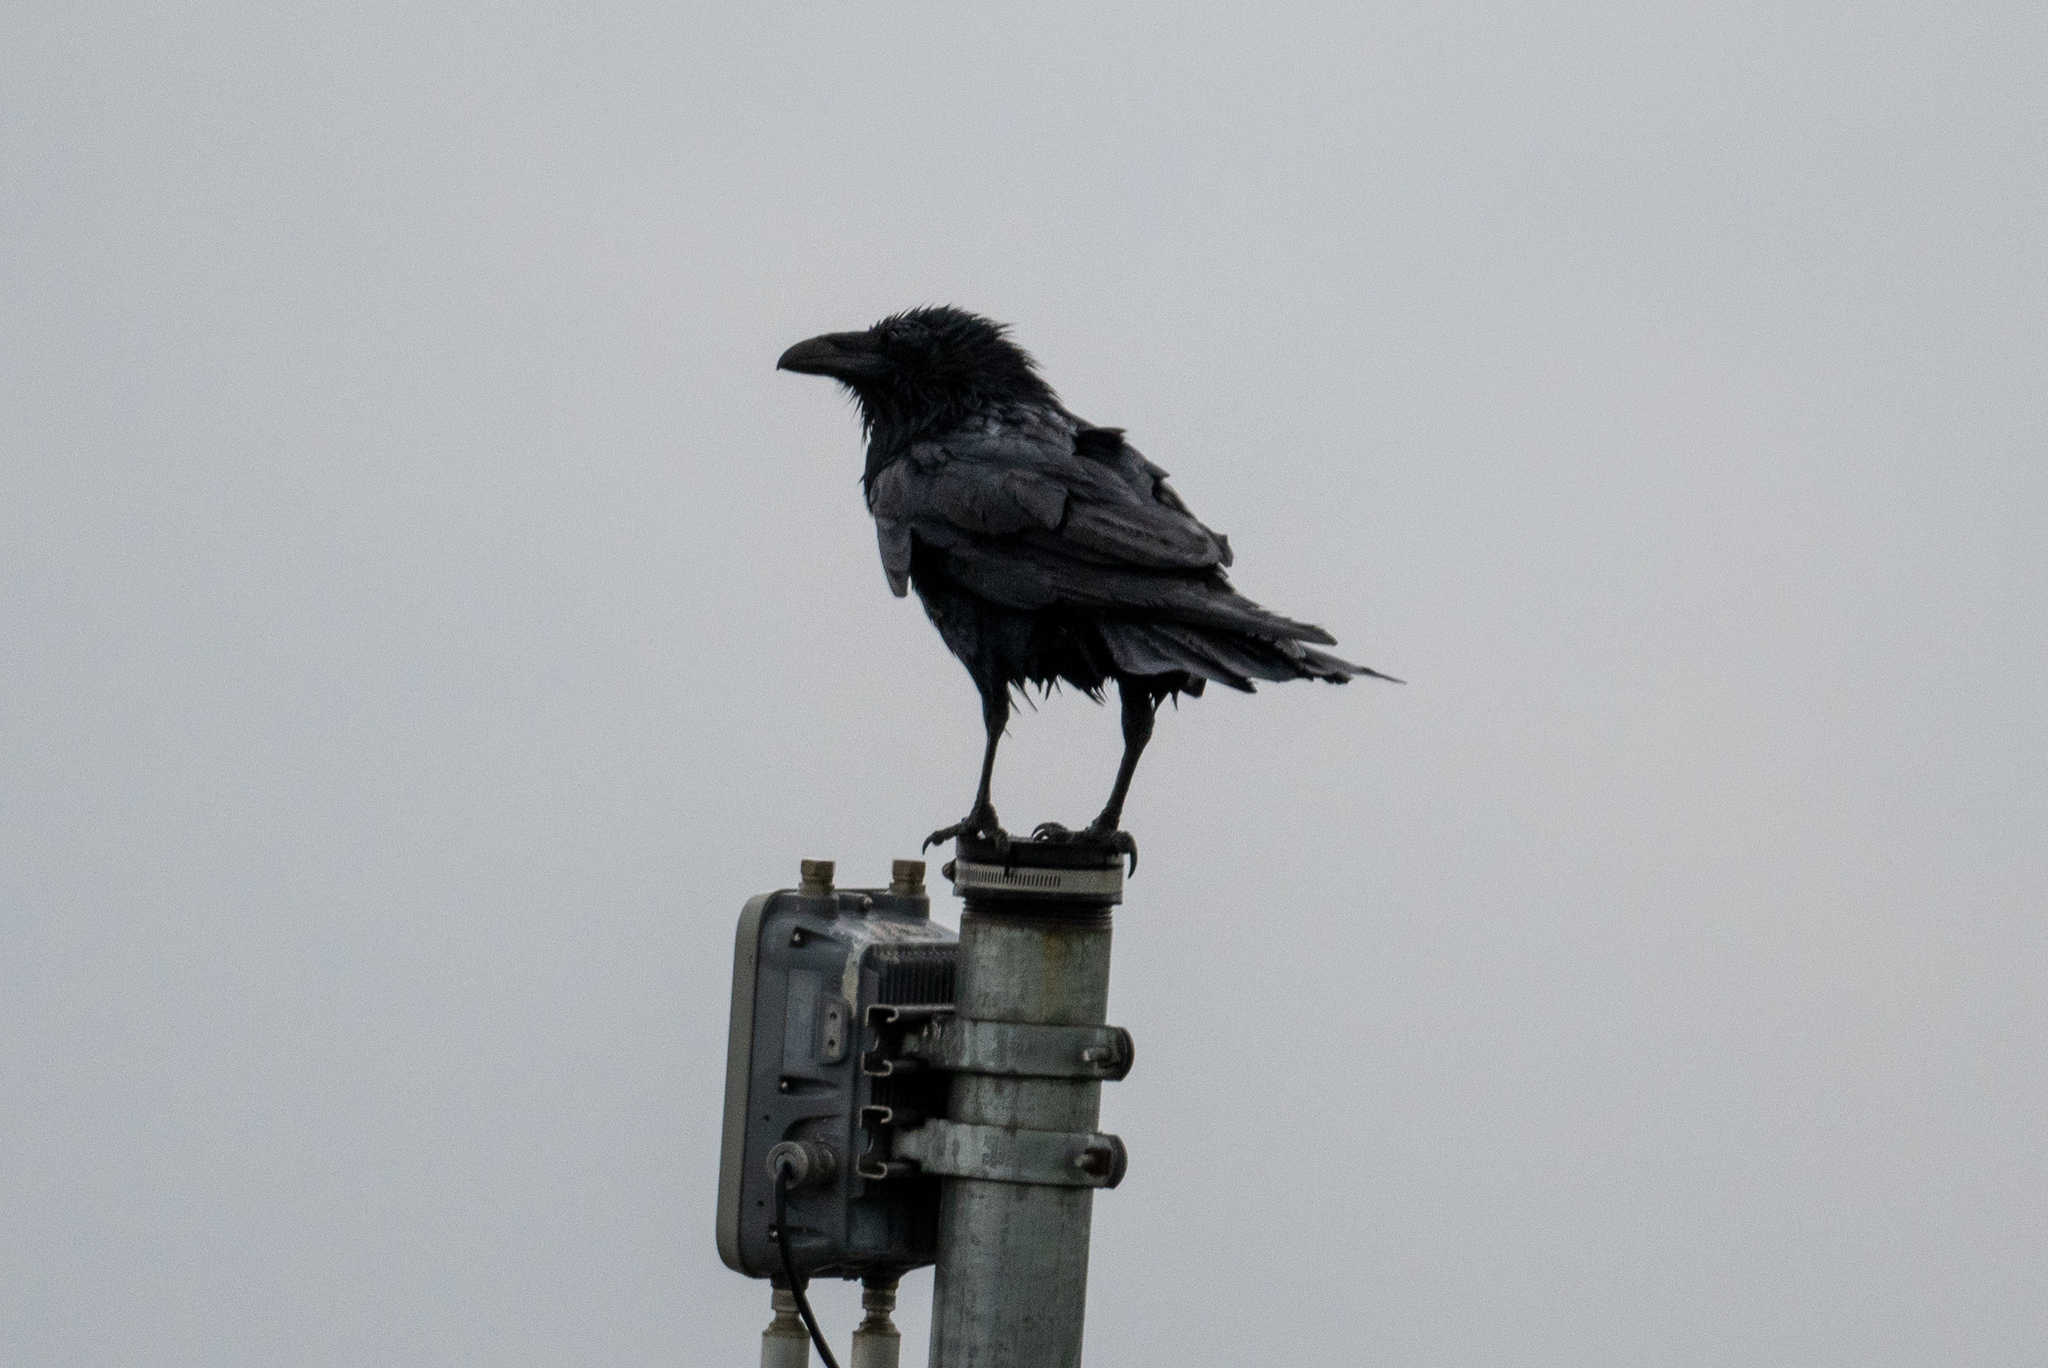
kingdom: Animalia
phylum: Chordata
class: Aves
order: Passeriformes
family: Corvidae
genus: Corvus
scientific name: Corvus corax
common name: Common raven
